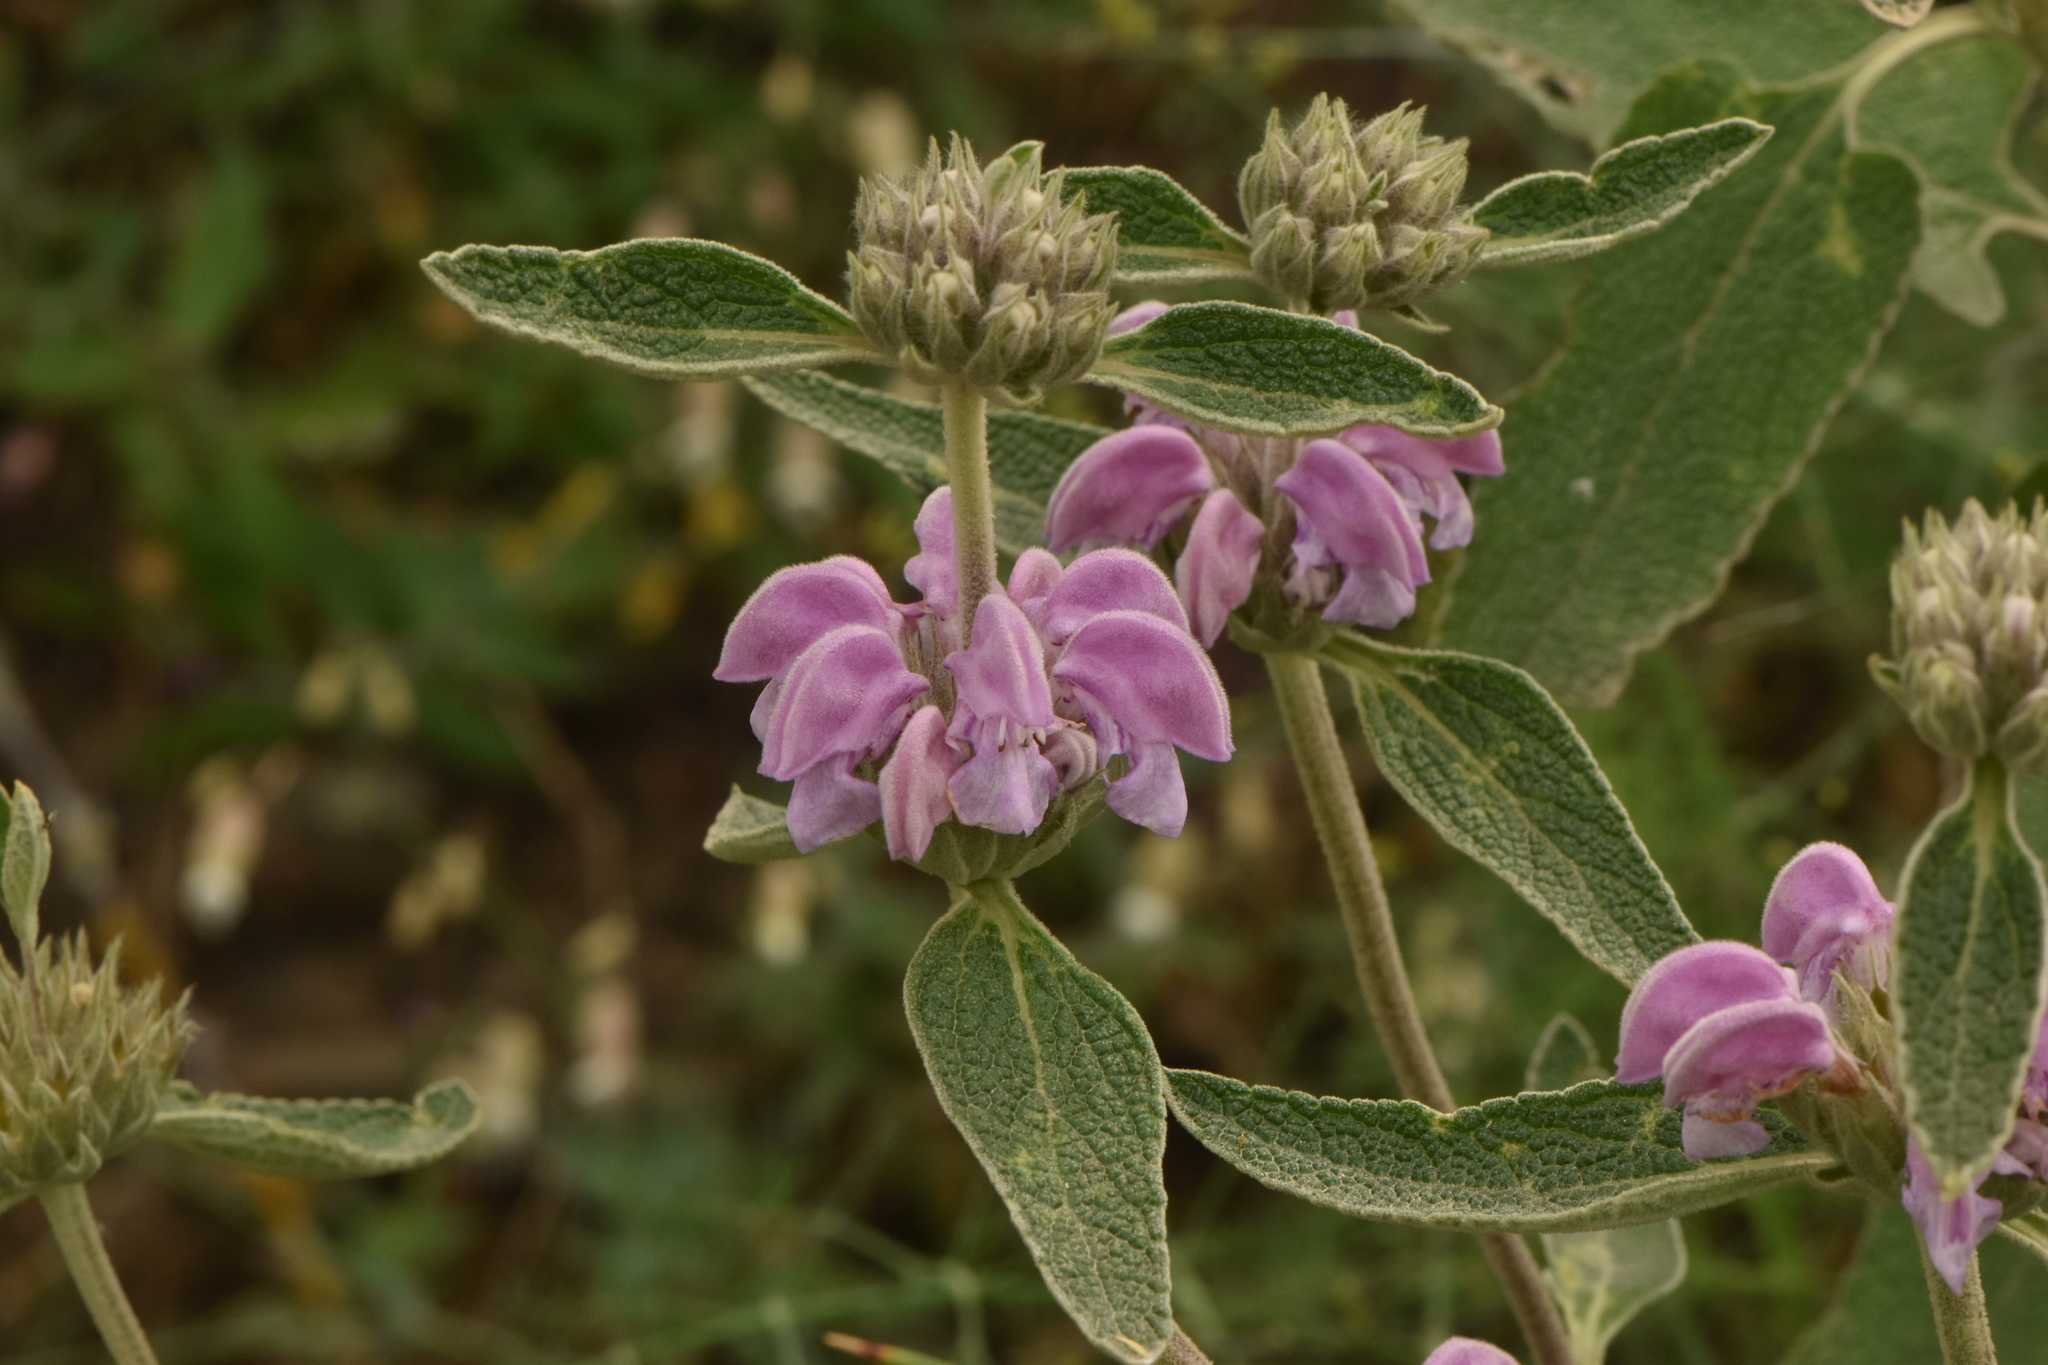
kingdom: Plantae
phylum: Tracheophyta
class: Magnoliopsida
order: Lamiales
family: Lamiaceae
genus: Phlomis
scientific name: Phlomis purpurea
